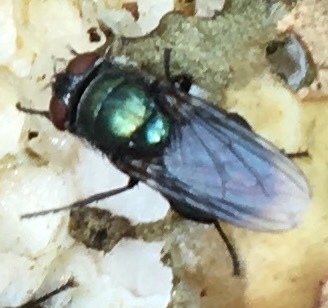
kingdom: Animalia
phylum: Arthropoda
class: Insecta
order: Diptera
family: Calliphoridae
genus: Phormia
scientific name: Phormia regina
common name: Black blow fly
